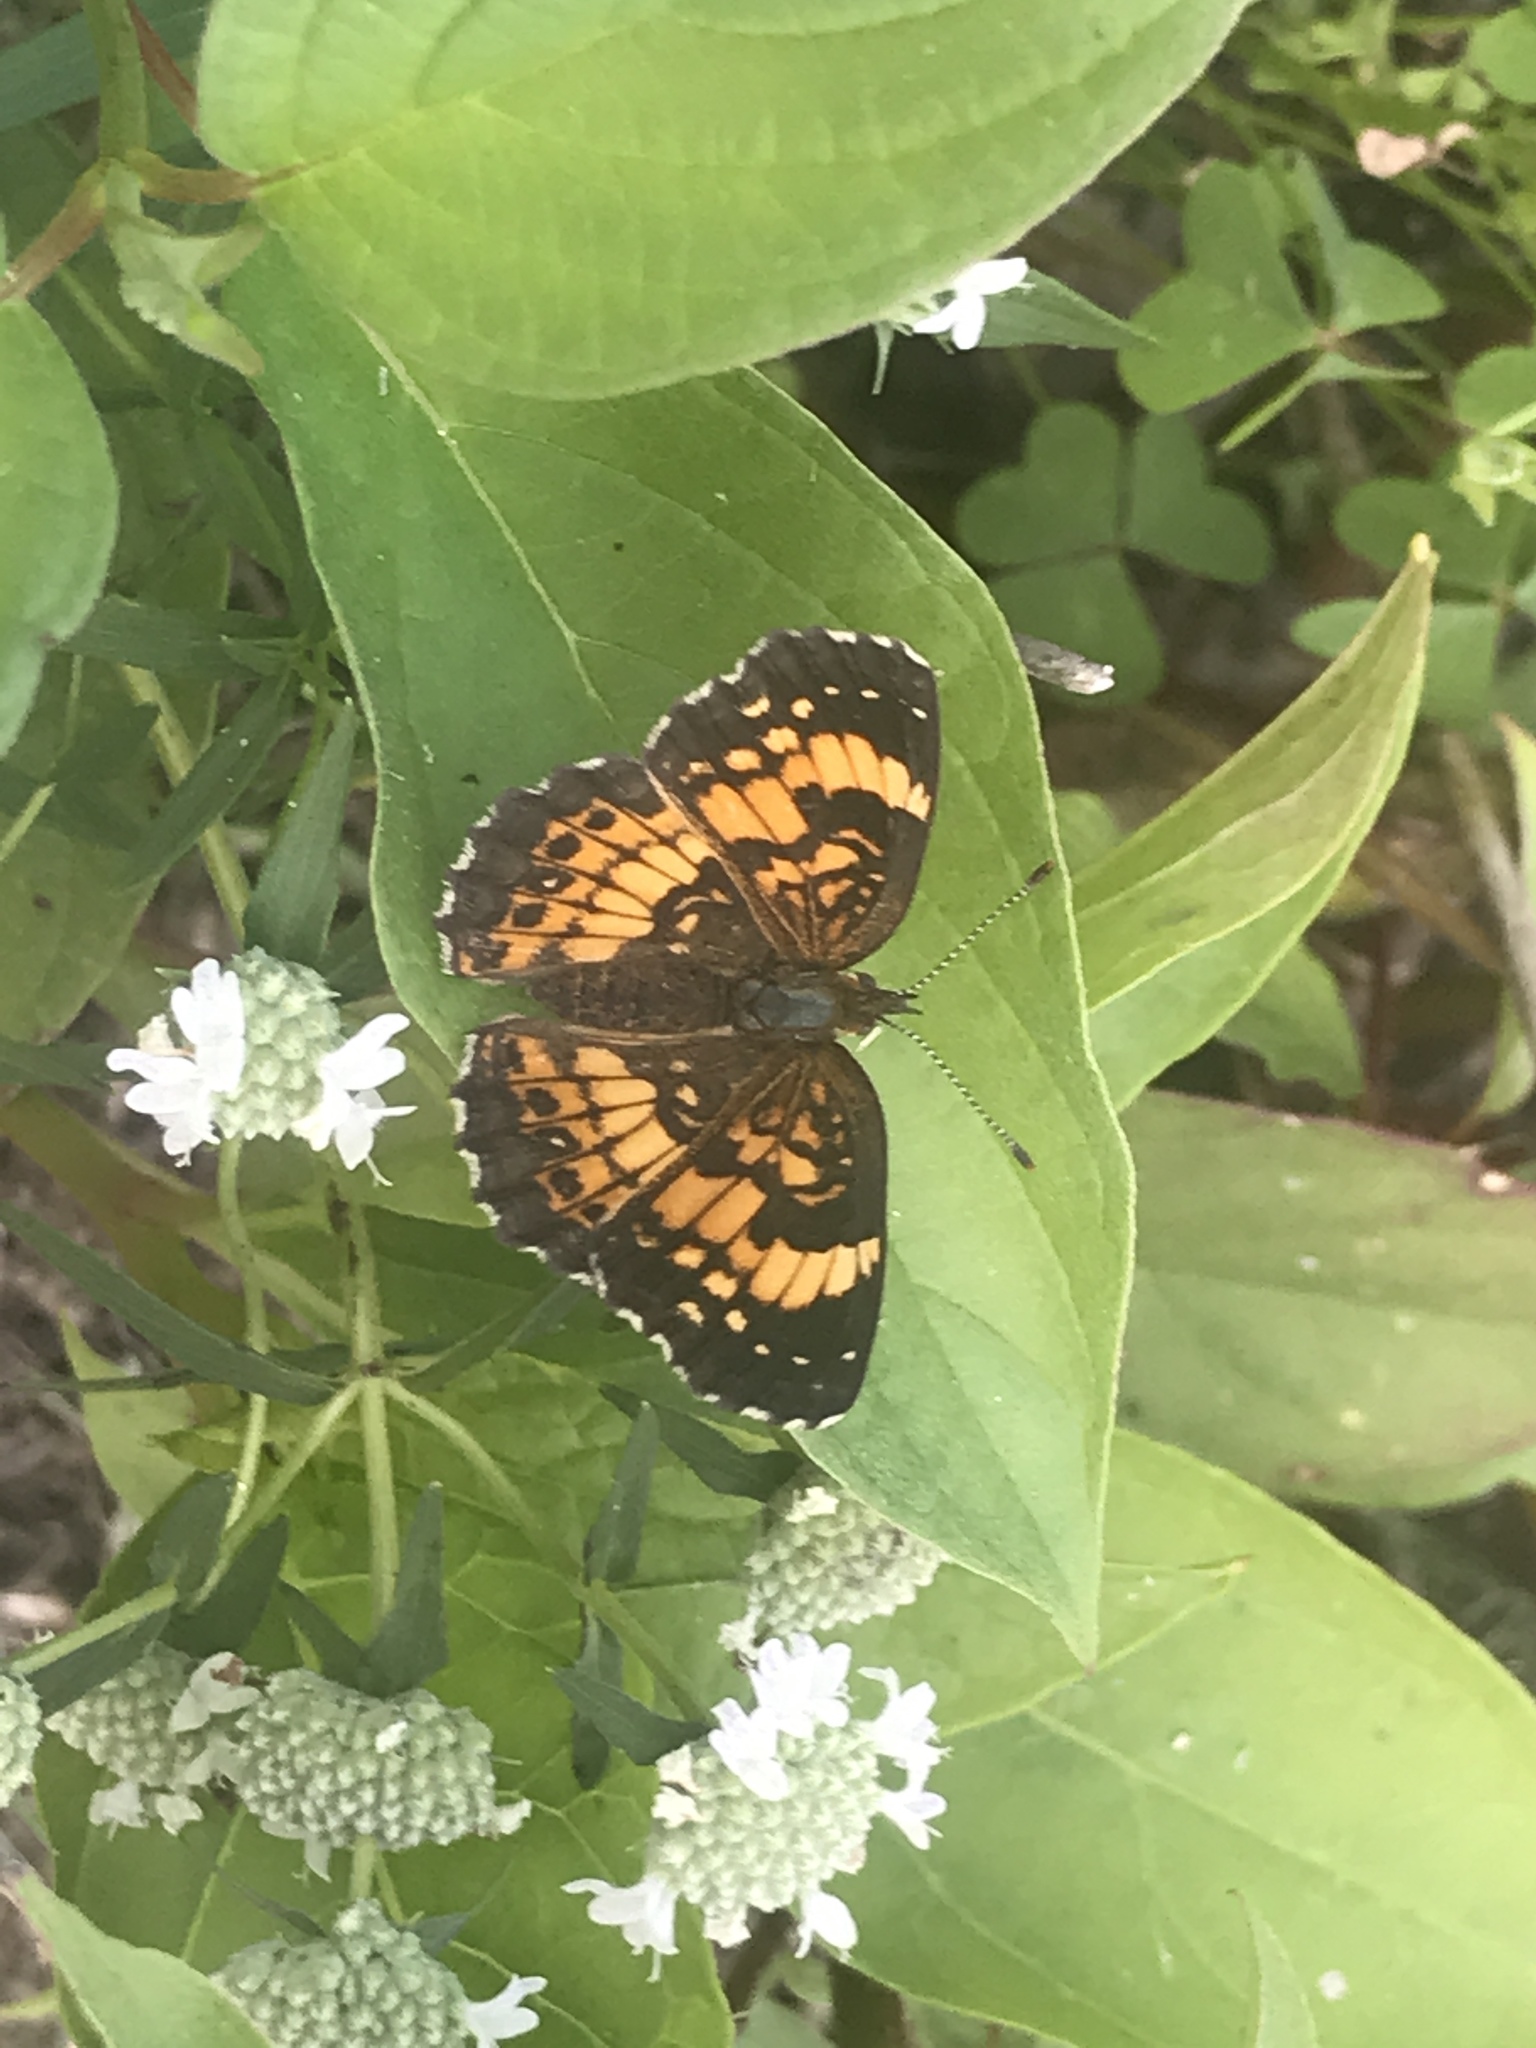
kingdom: Animalia
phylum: Arthropoda
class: Insecta
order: Lepidoptera
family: Nymphalidae
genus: Chlosyne
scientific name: Chlosyne nycteis
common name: Silvery checkerspot
